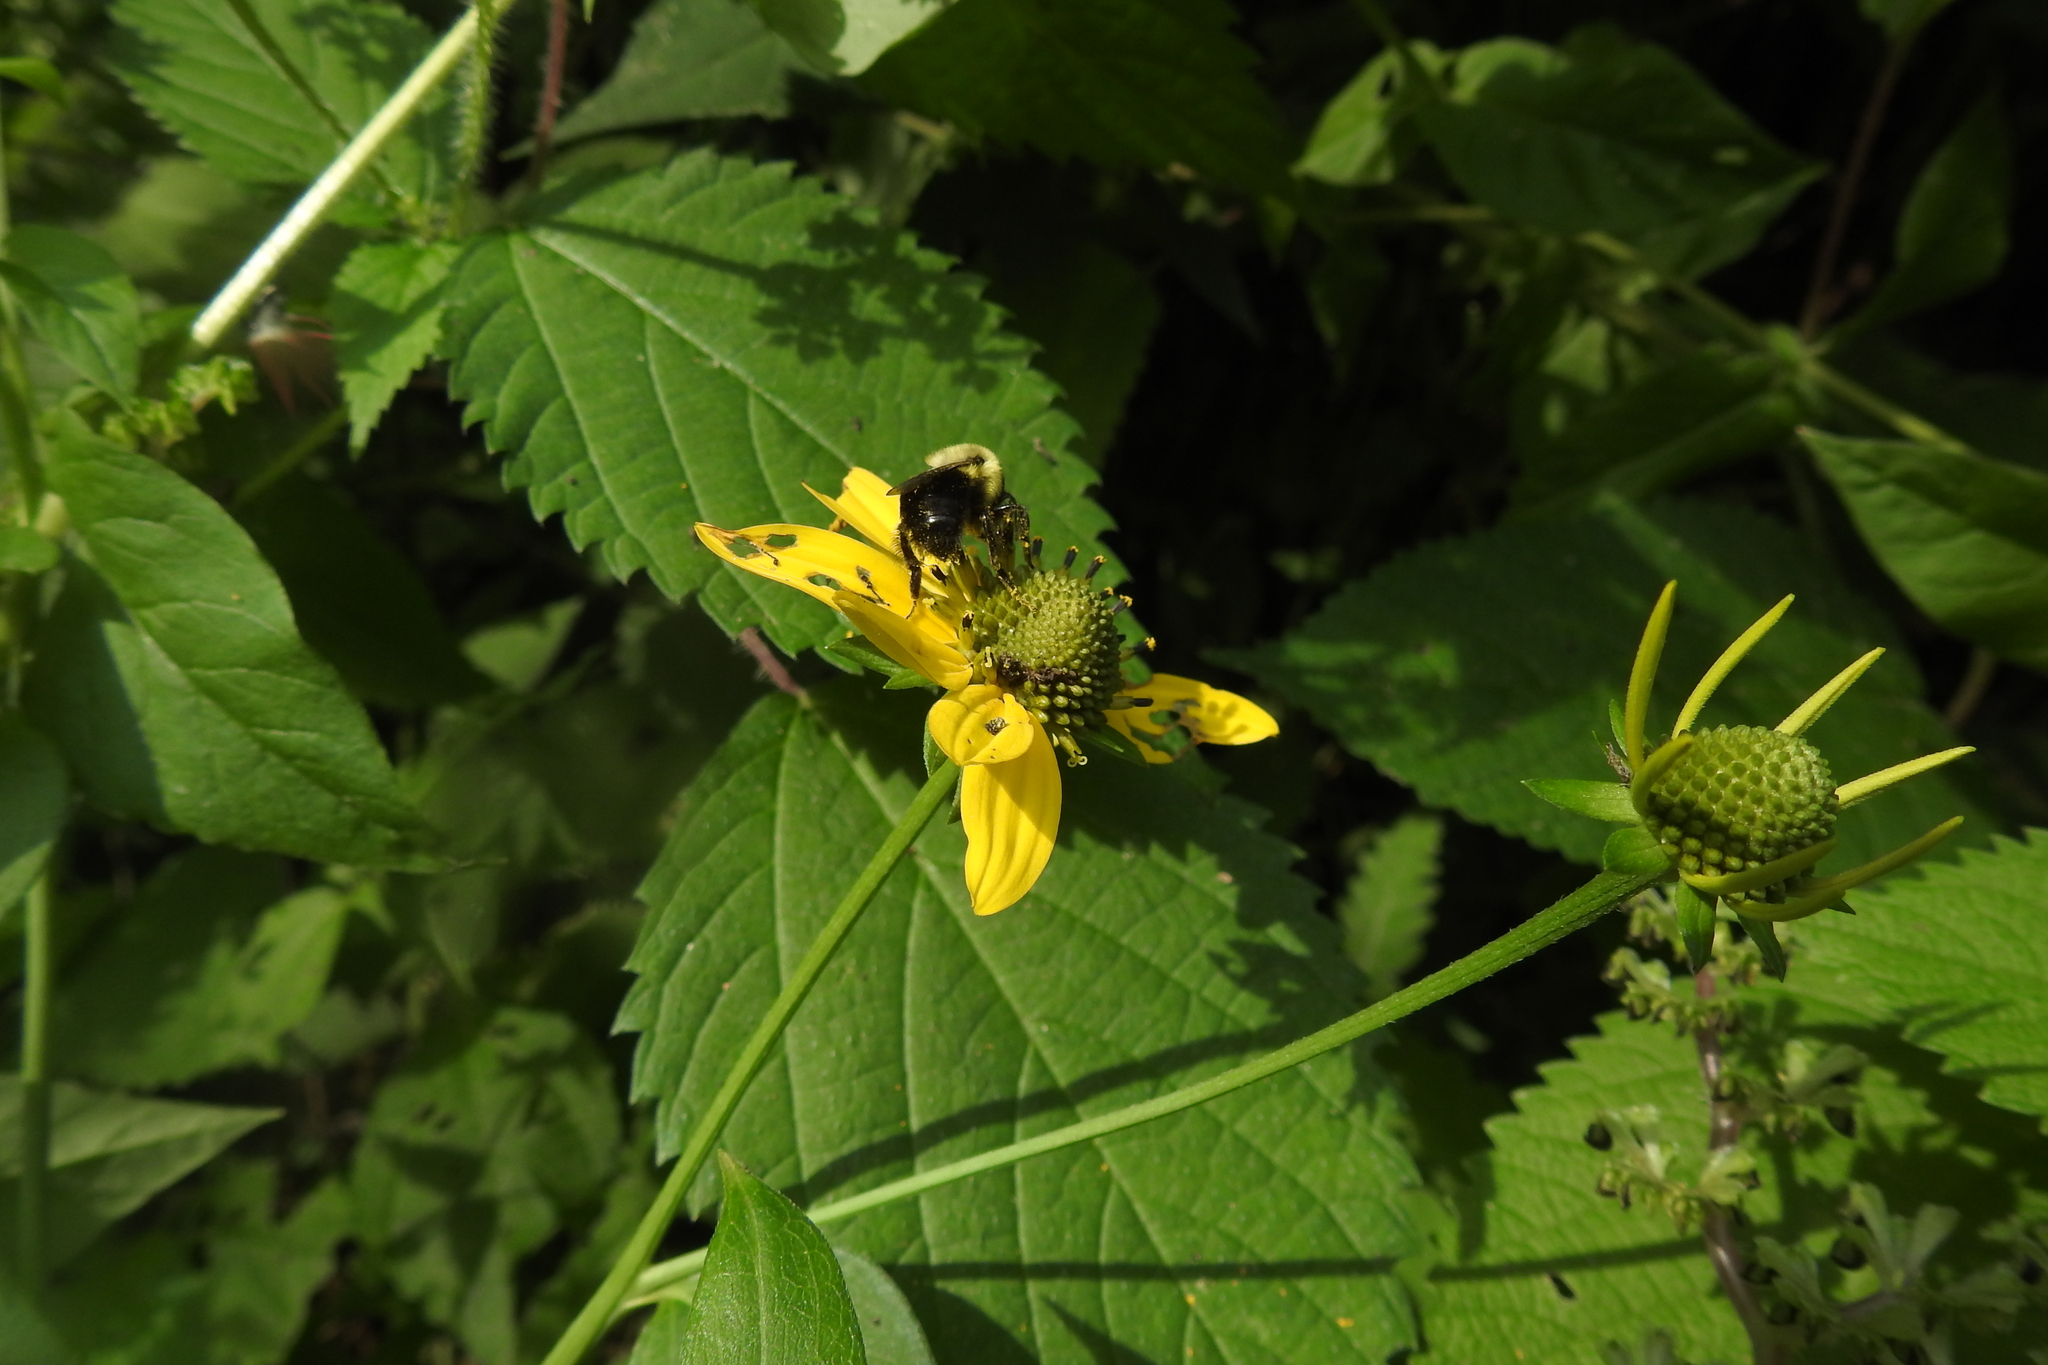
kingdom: Animalia
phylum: Arthropoda
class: Insecta
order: Hymenoptera
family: Apidae
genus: Bombus
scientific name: Bombus impatiens
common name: Common eastern bumble bee
